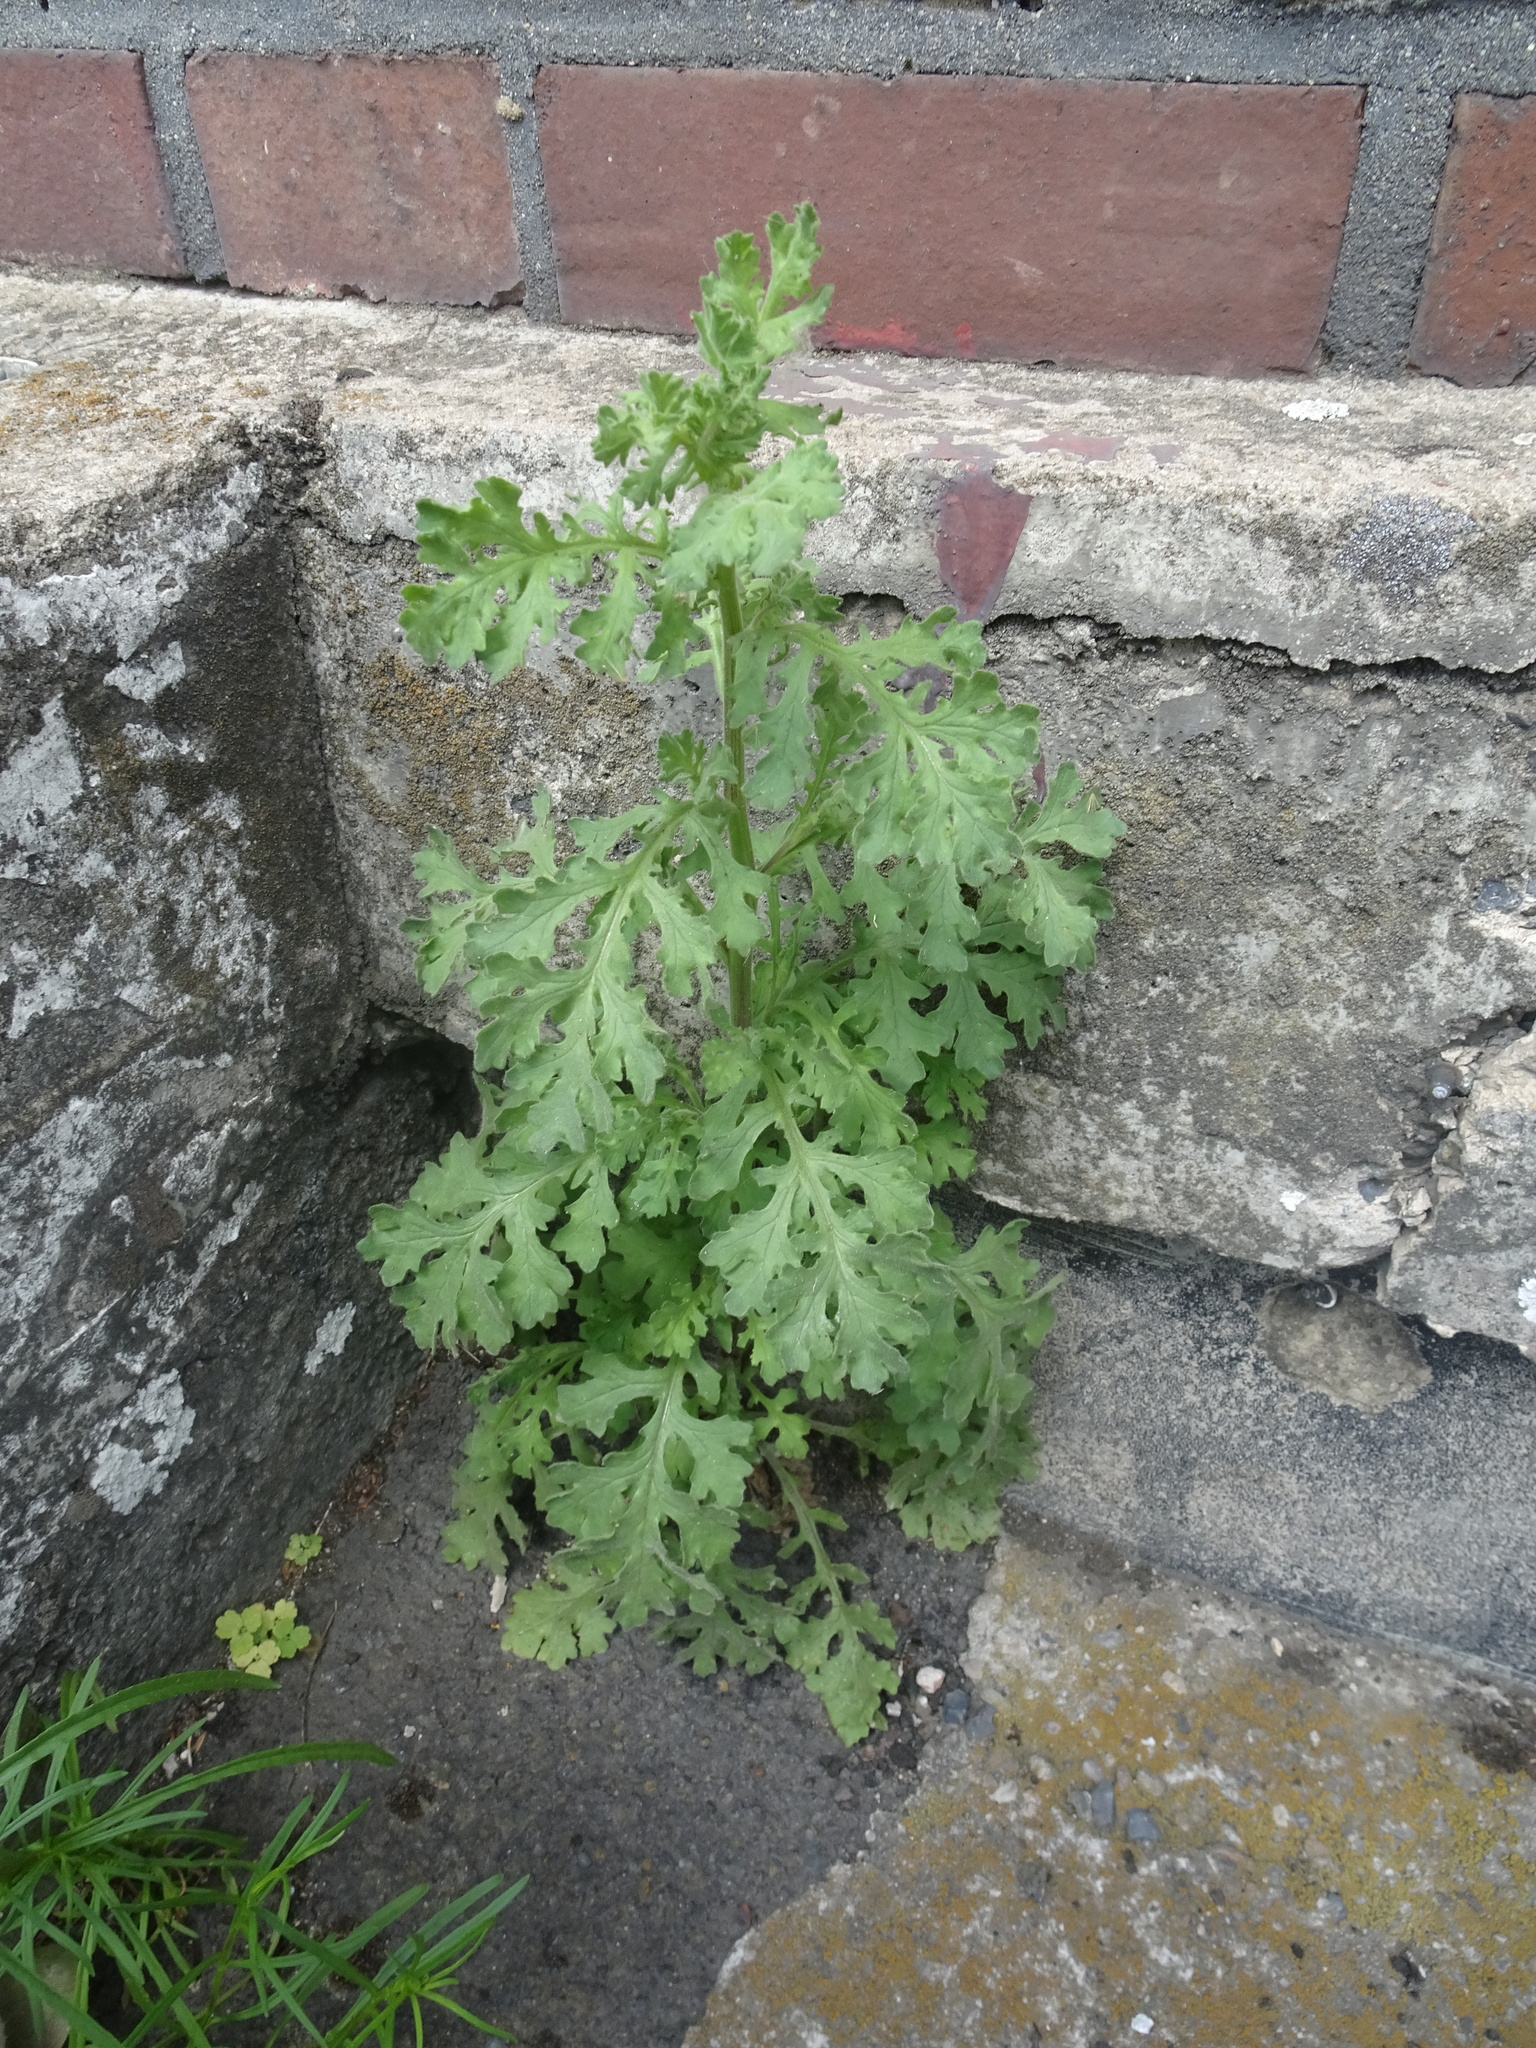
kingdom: Plantae
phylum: Tracheophyta
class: Magnoliopsida
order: Asterales
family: Asteraceae
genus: Jacobaea
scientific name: Jacobaea vulgaris
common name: Stinking willie
